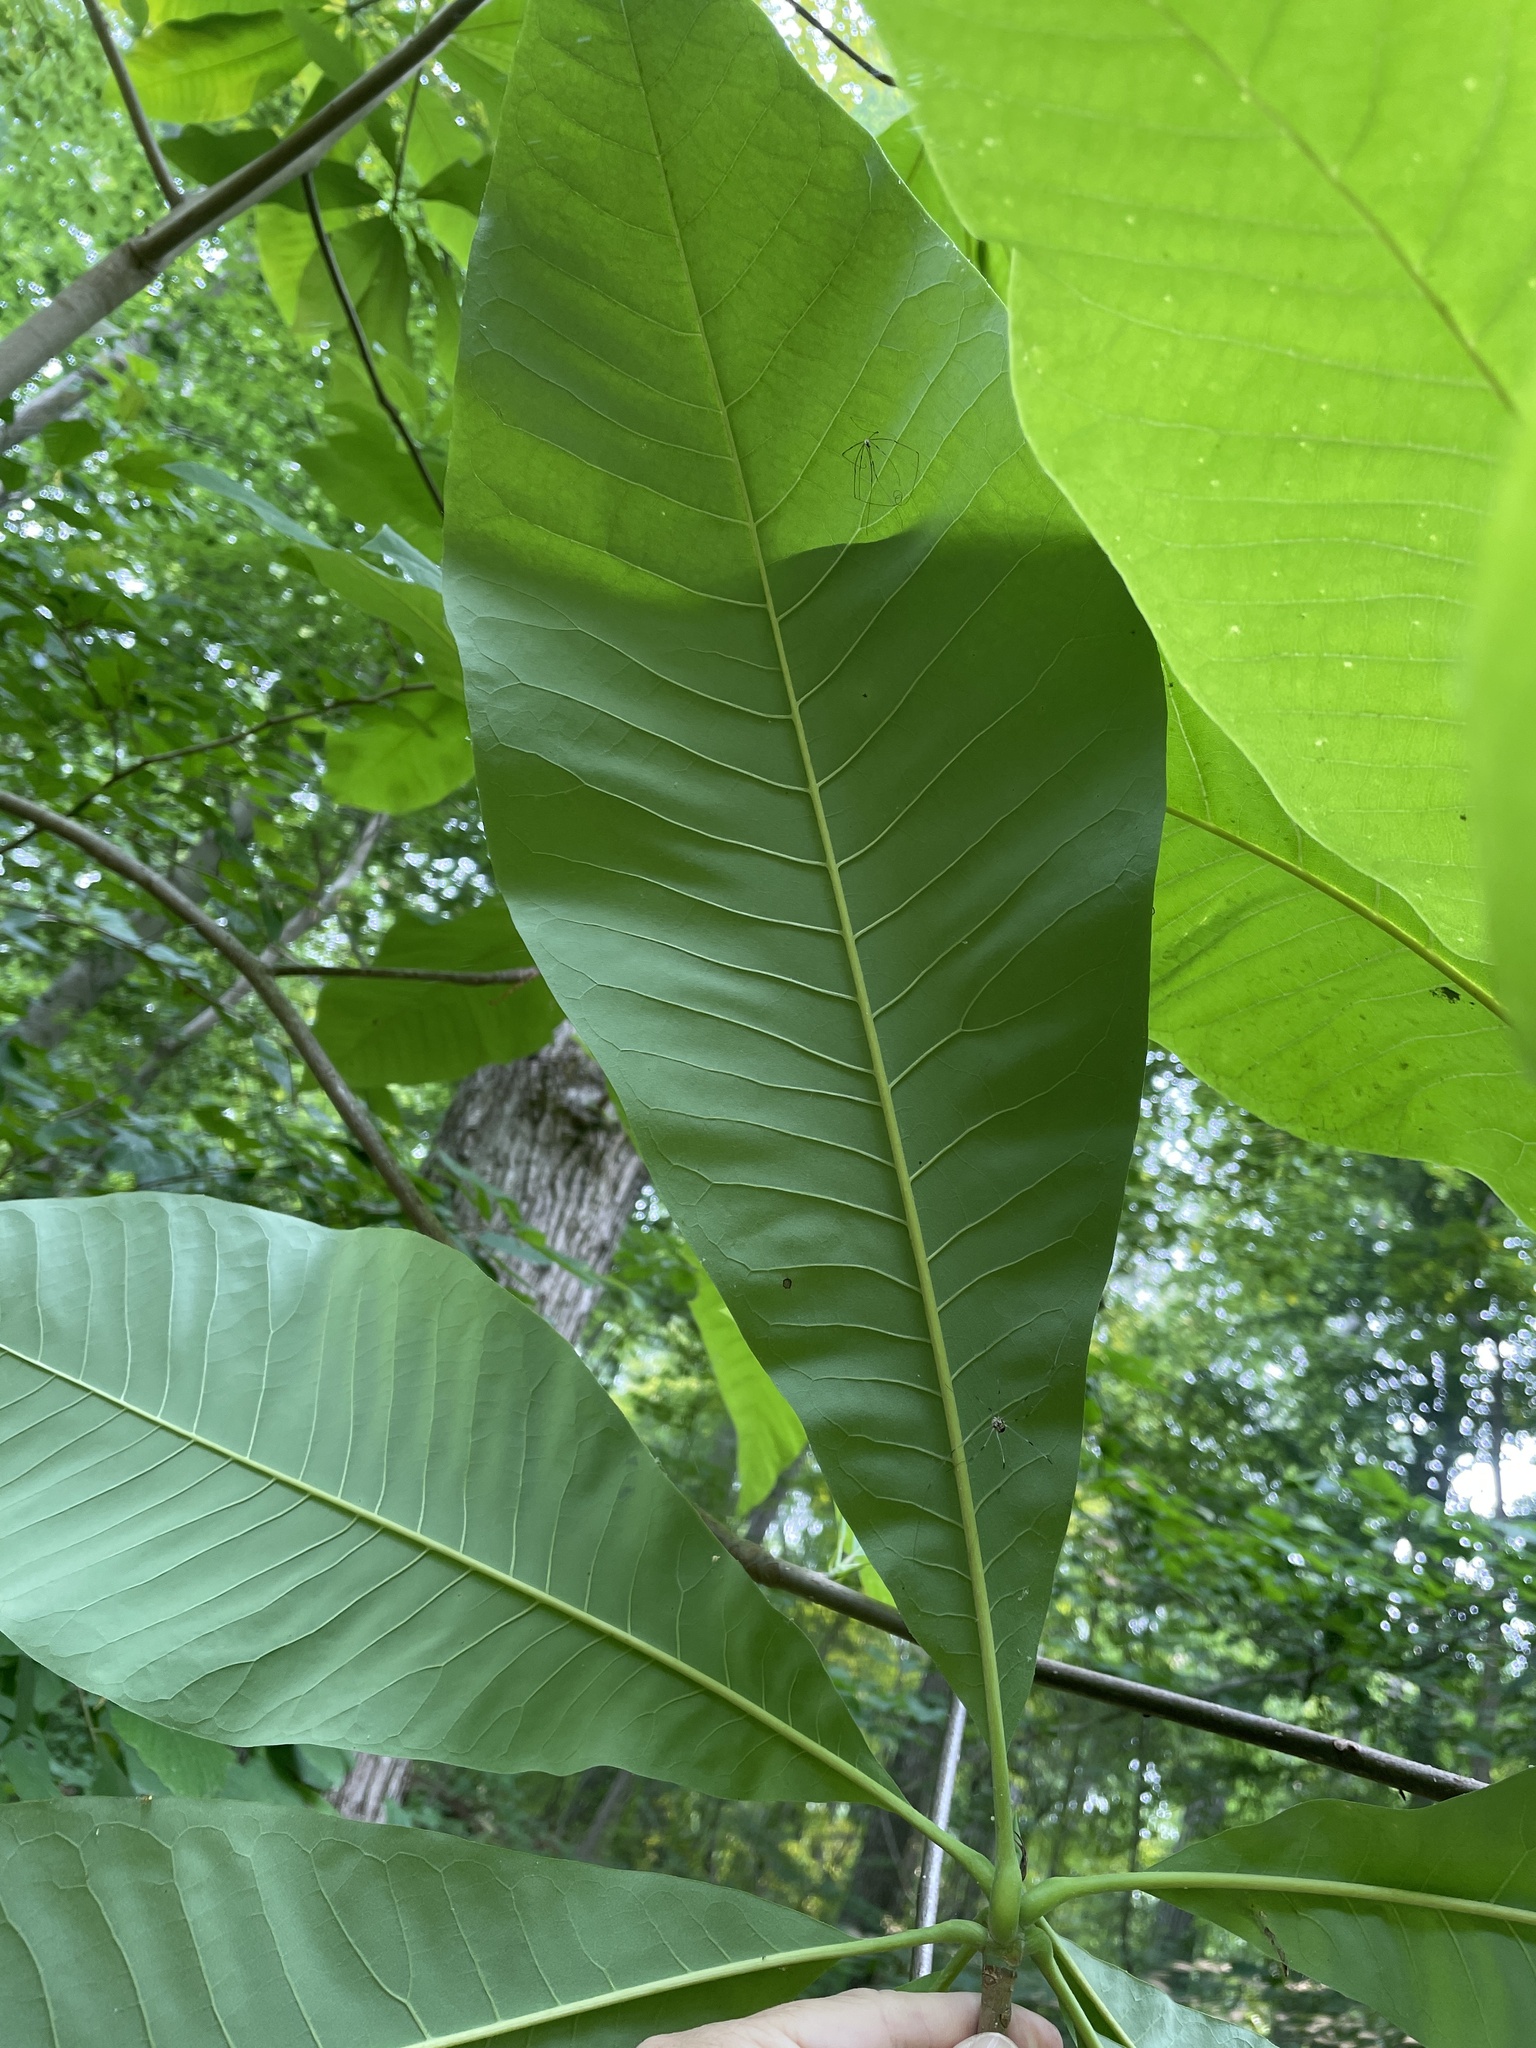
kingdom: Plantae
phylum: Tracheophyta
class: Magnoliopsida
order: Magnoliales
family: Magnoliaceae
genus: Magnolia
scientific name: Magnolia tripetala
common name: Umbrella magnolia
